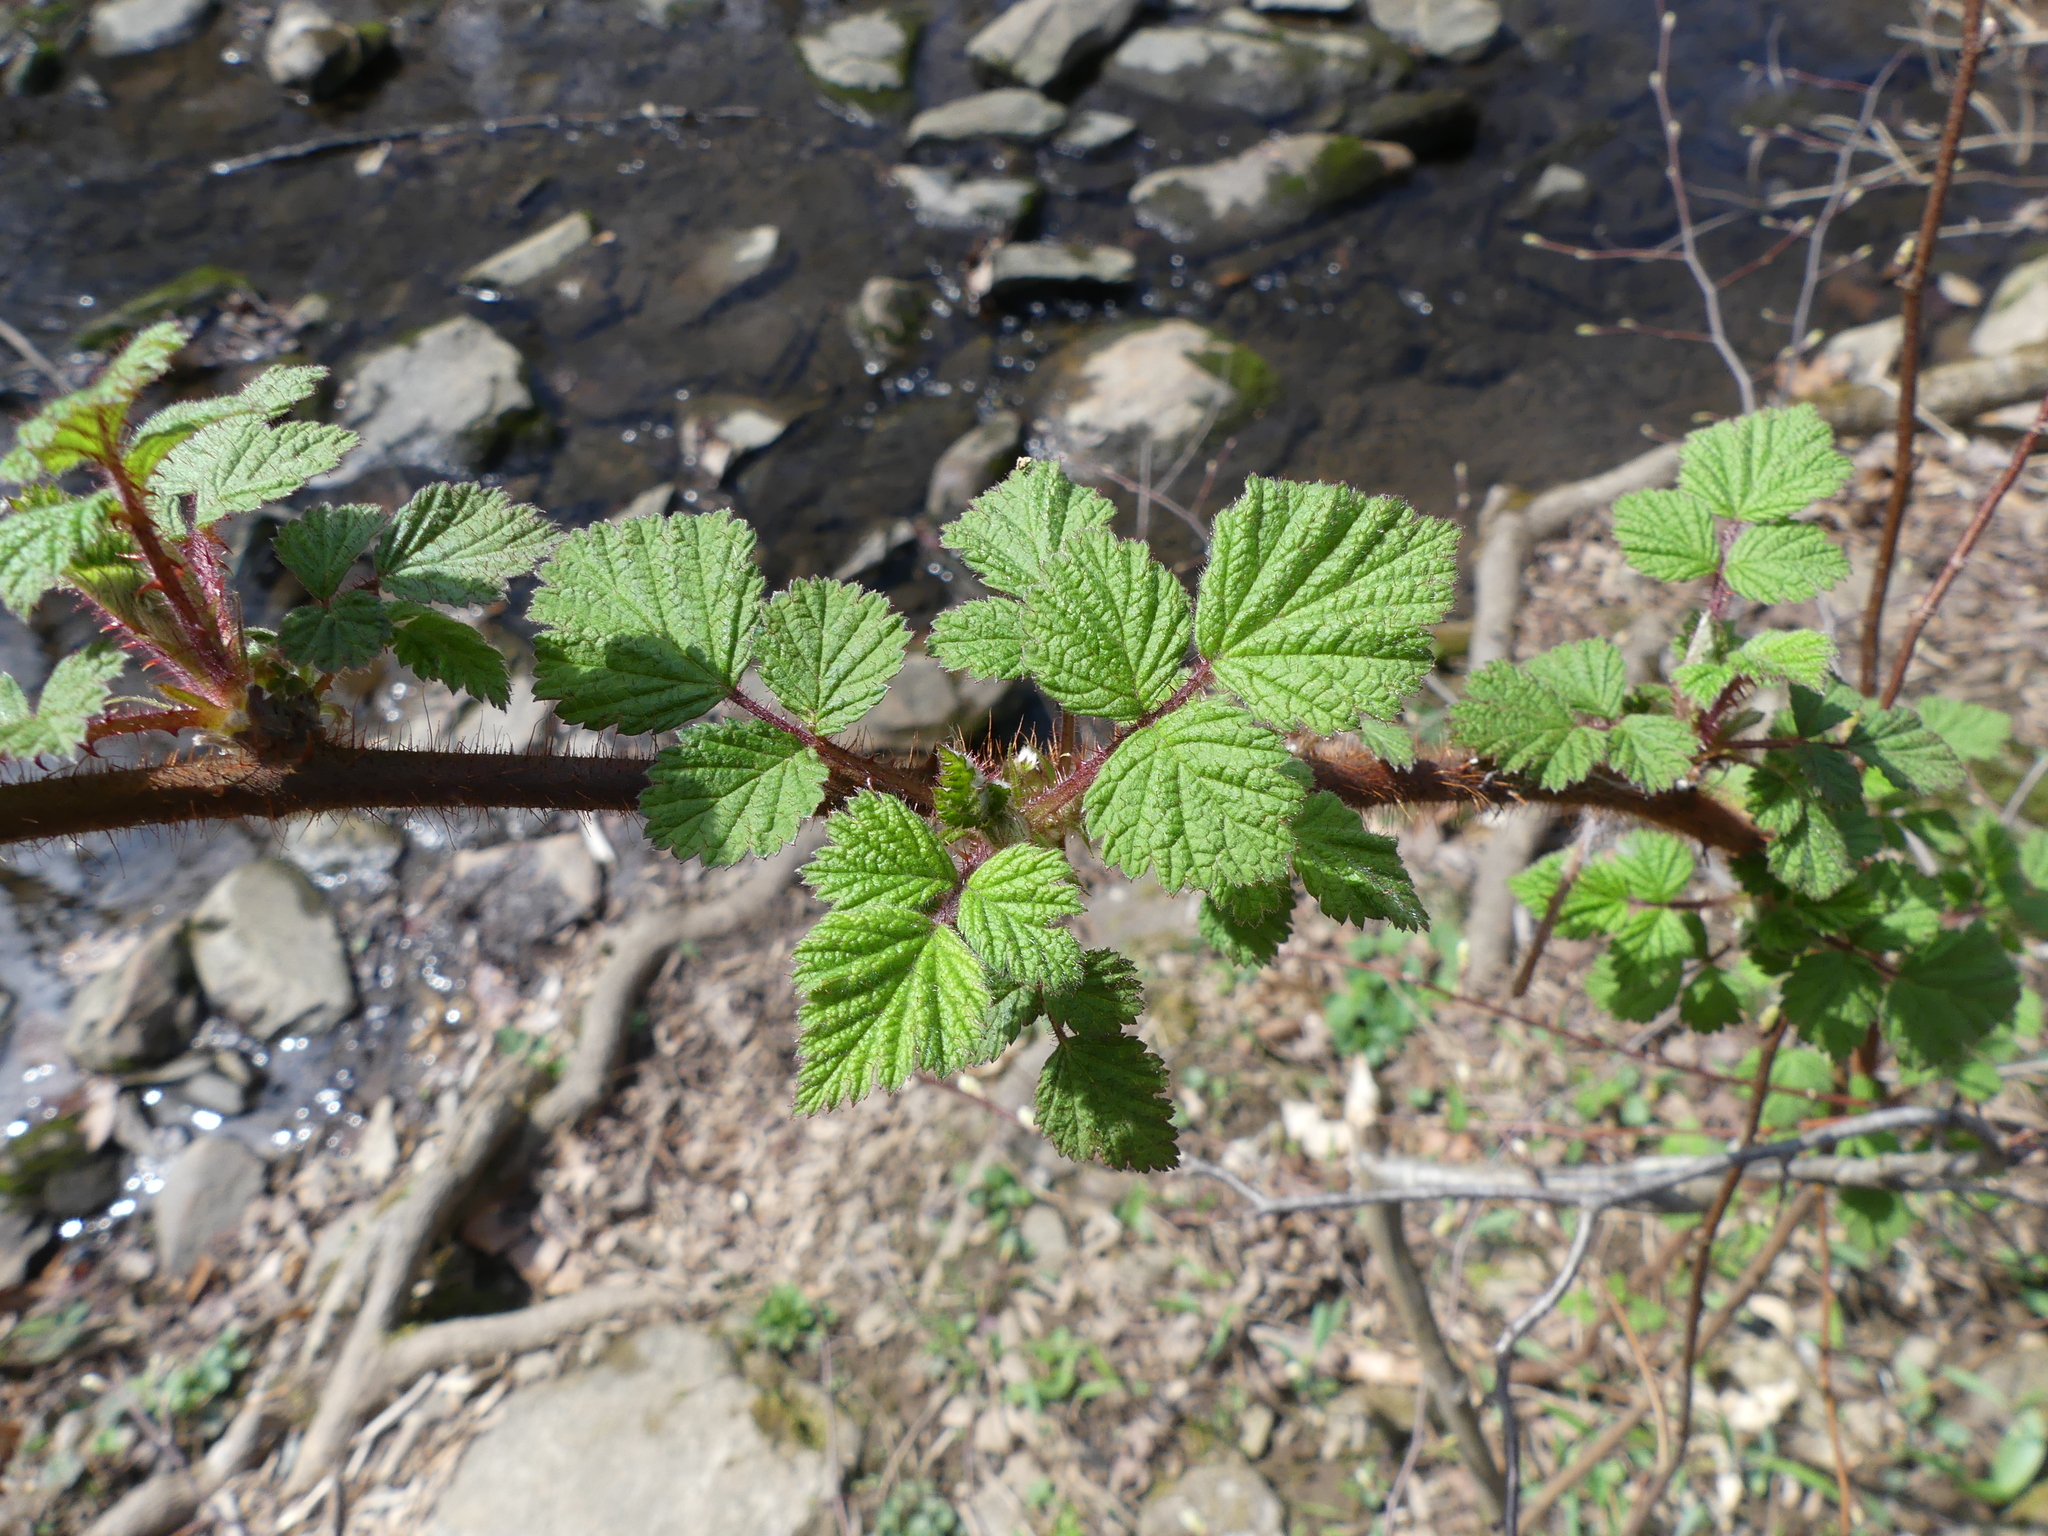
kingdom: Plantae
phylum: Tracheophyta
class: Magnoliopsida
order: Rosales
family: Rosaceae
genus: Rubus
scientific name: Rubus phoenicolasius
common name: Japanese wineberry
